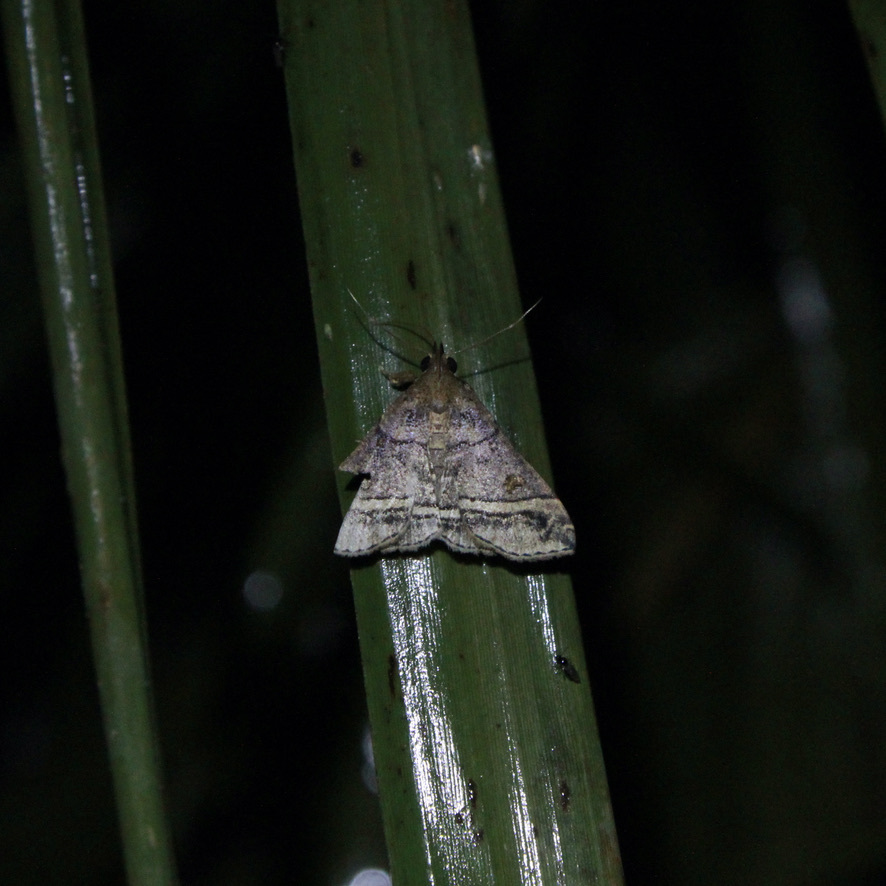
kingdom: Animalia
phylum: Arthropoda
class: Insecta
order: Lepidoptera
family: Erebidae
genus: Mastixis
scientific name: Mastixis aspisalis
